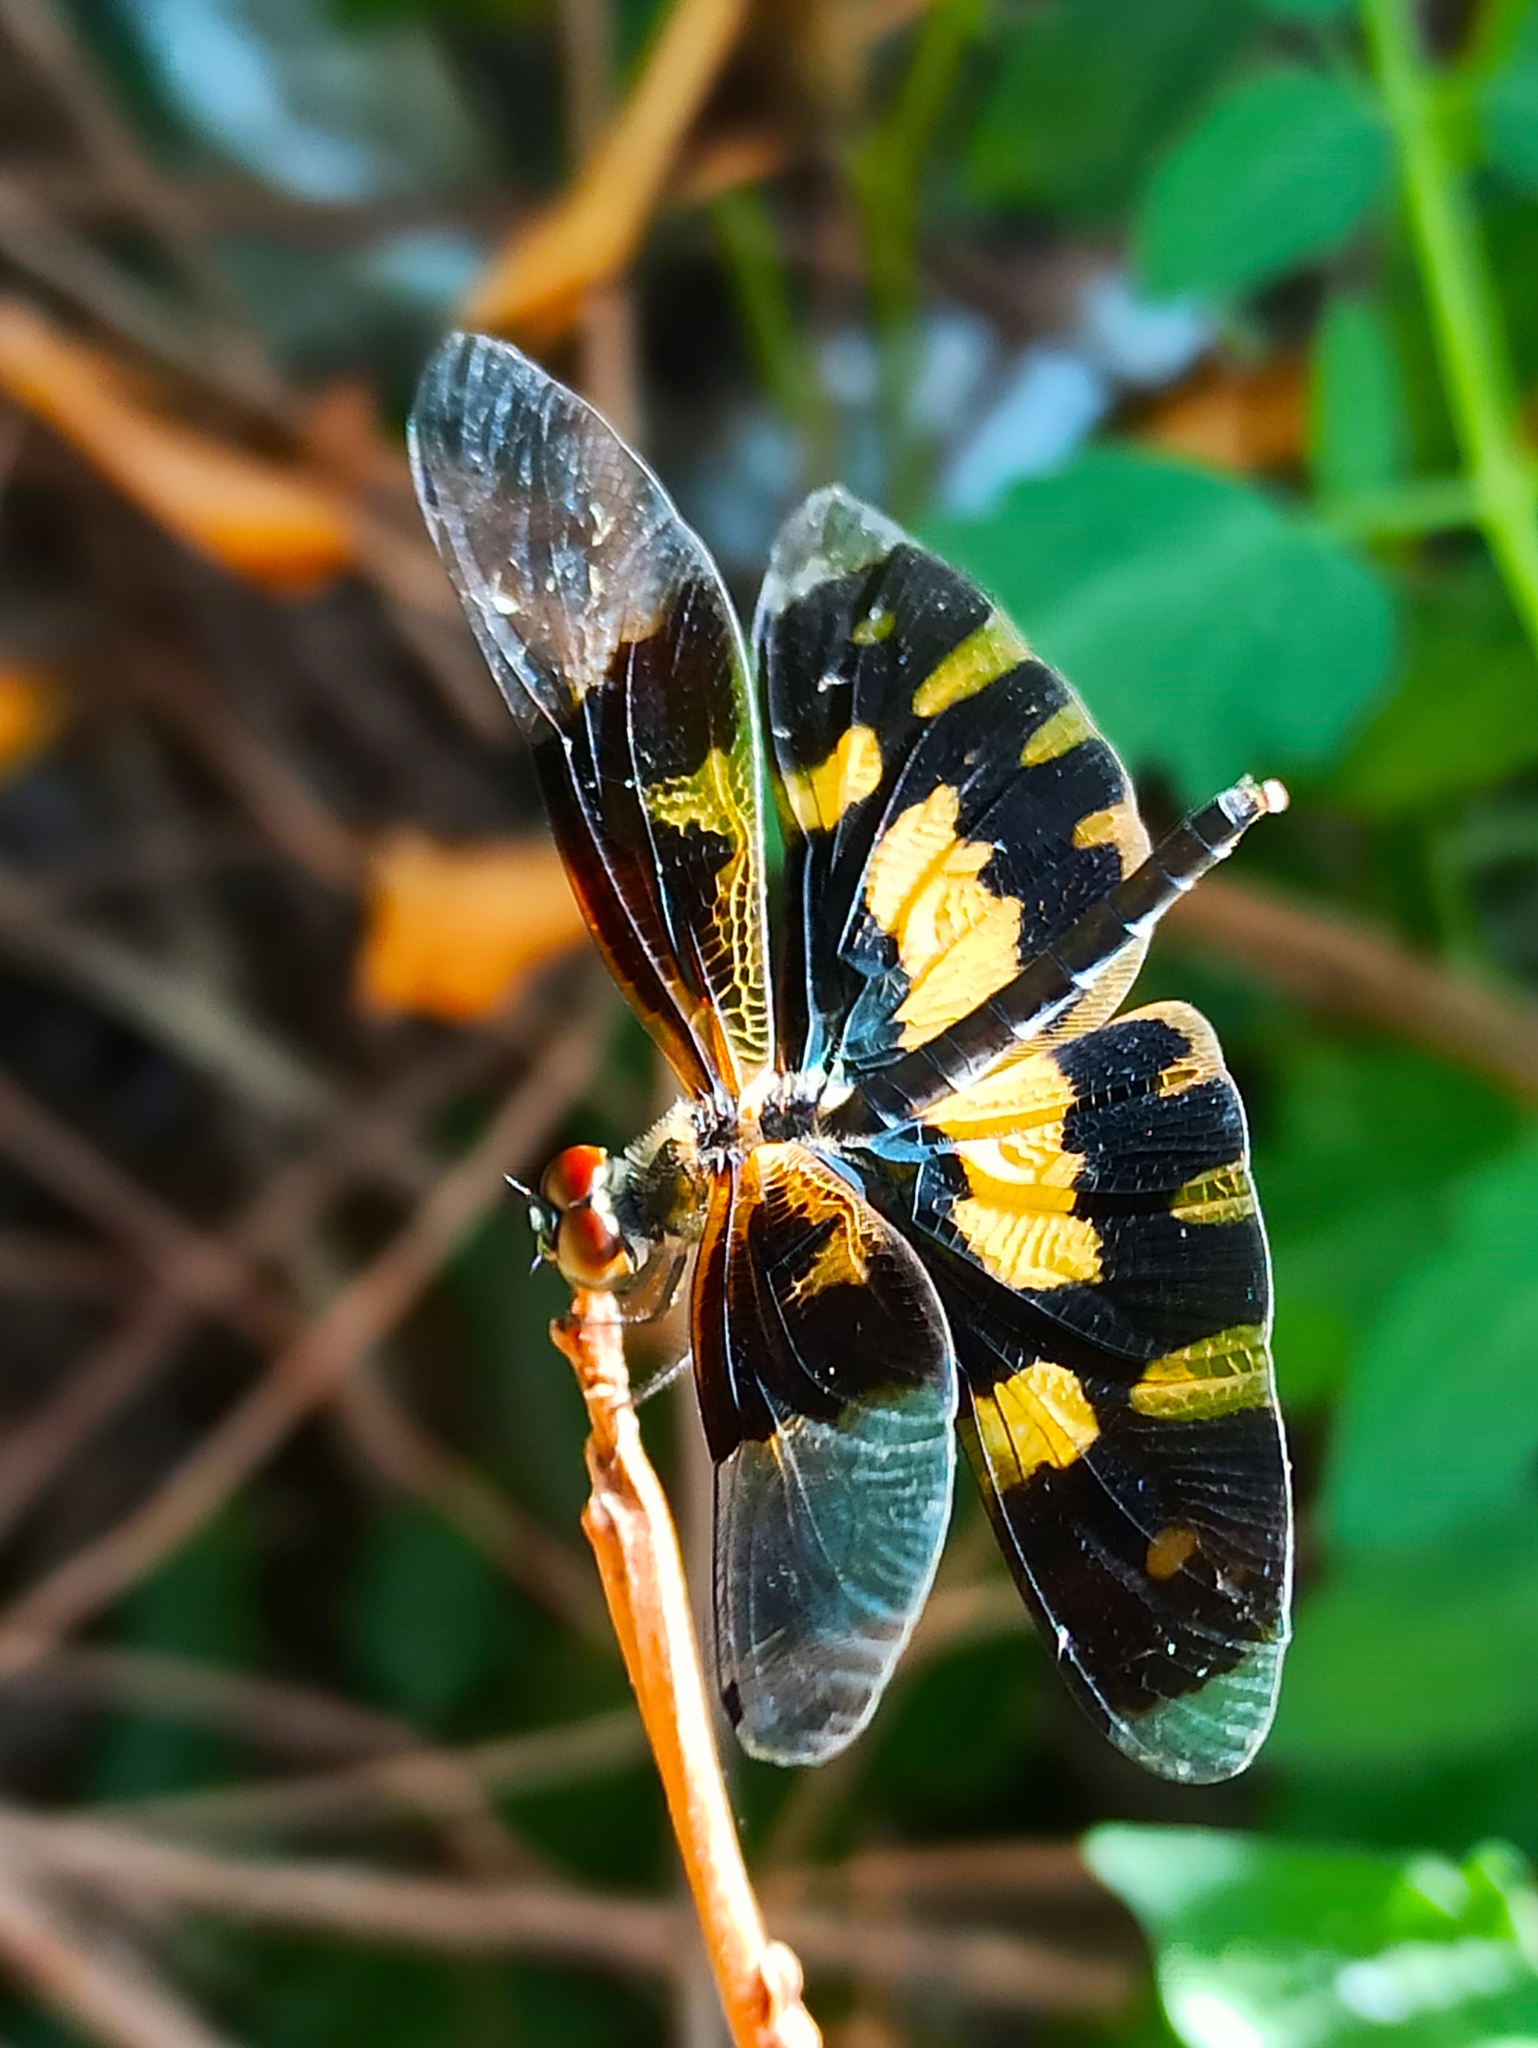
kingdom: Animalia
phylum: Arthropoda
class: Insecta
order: Odonata
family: Libellulidae
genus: Rhyothemis
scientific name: Rhyothemis variegata
